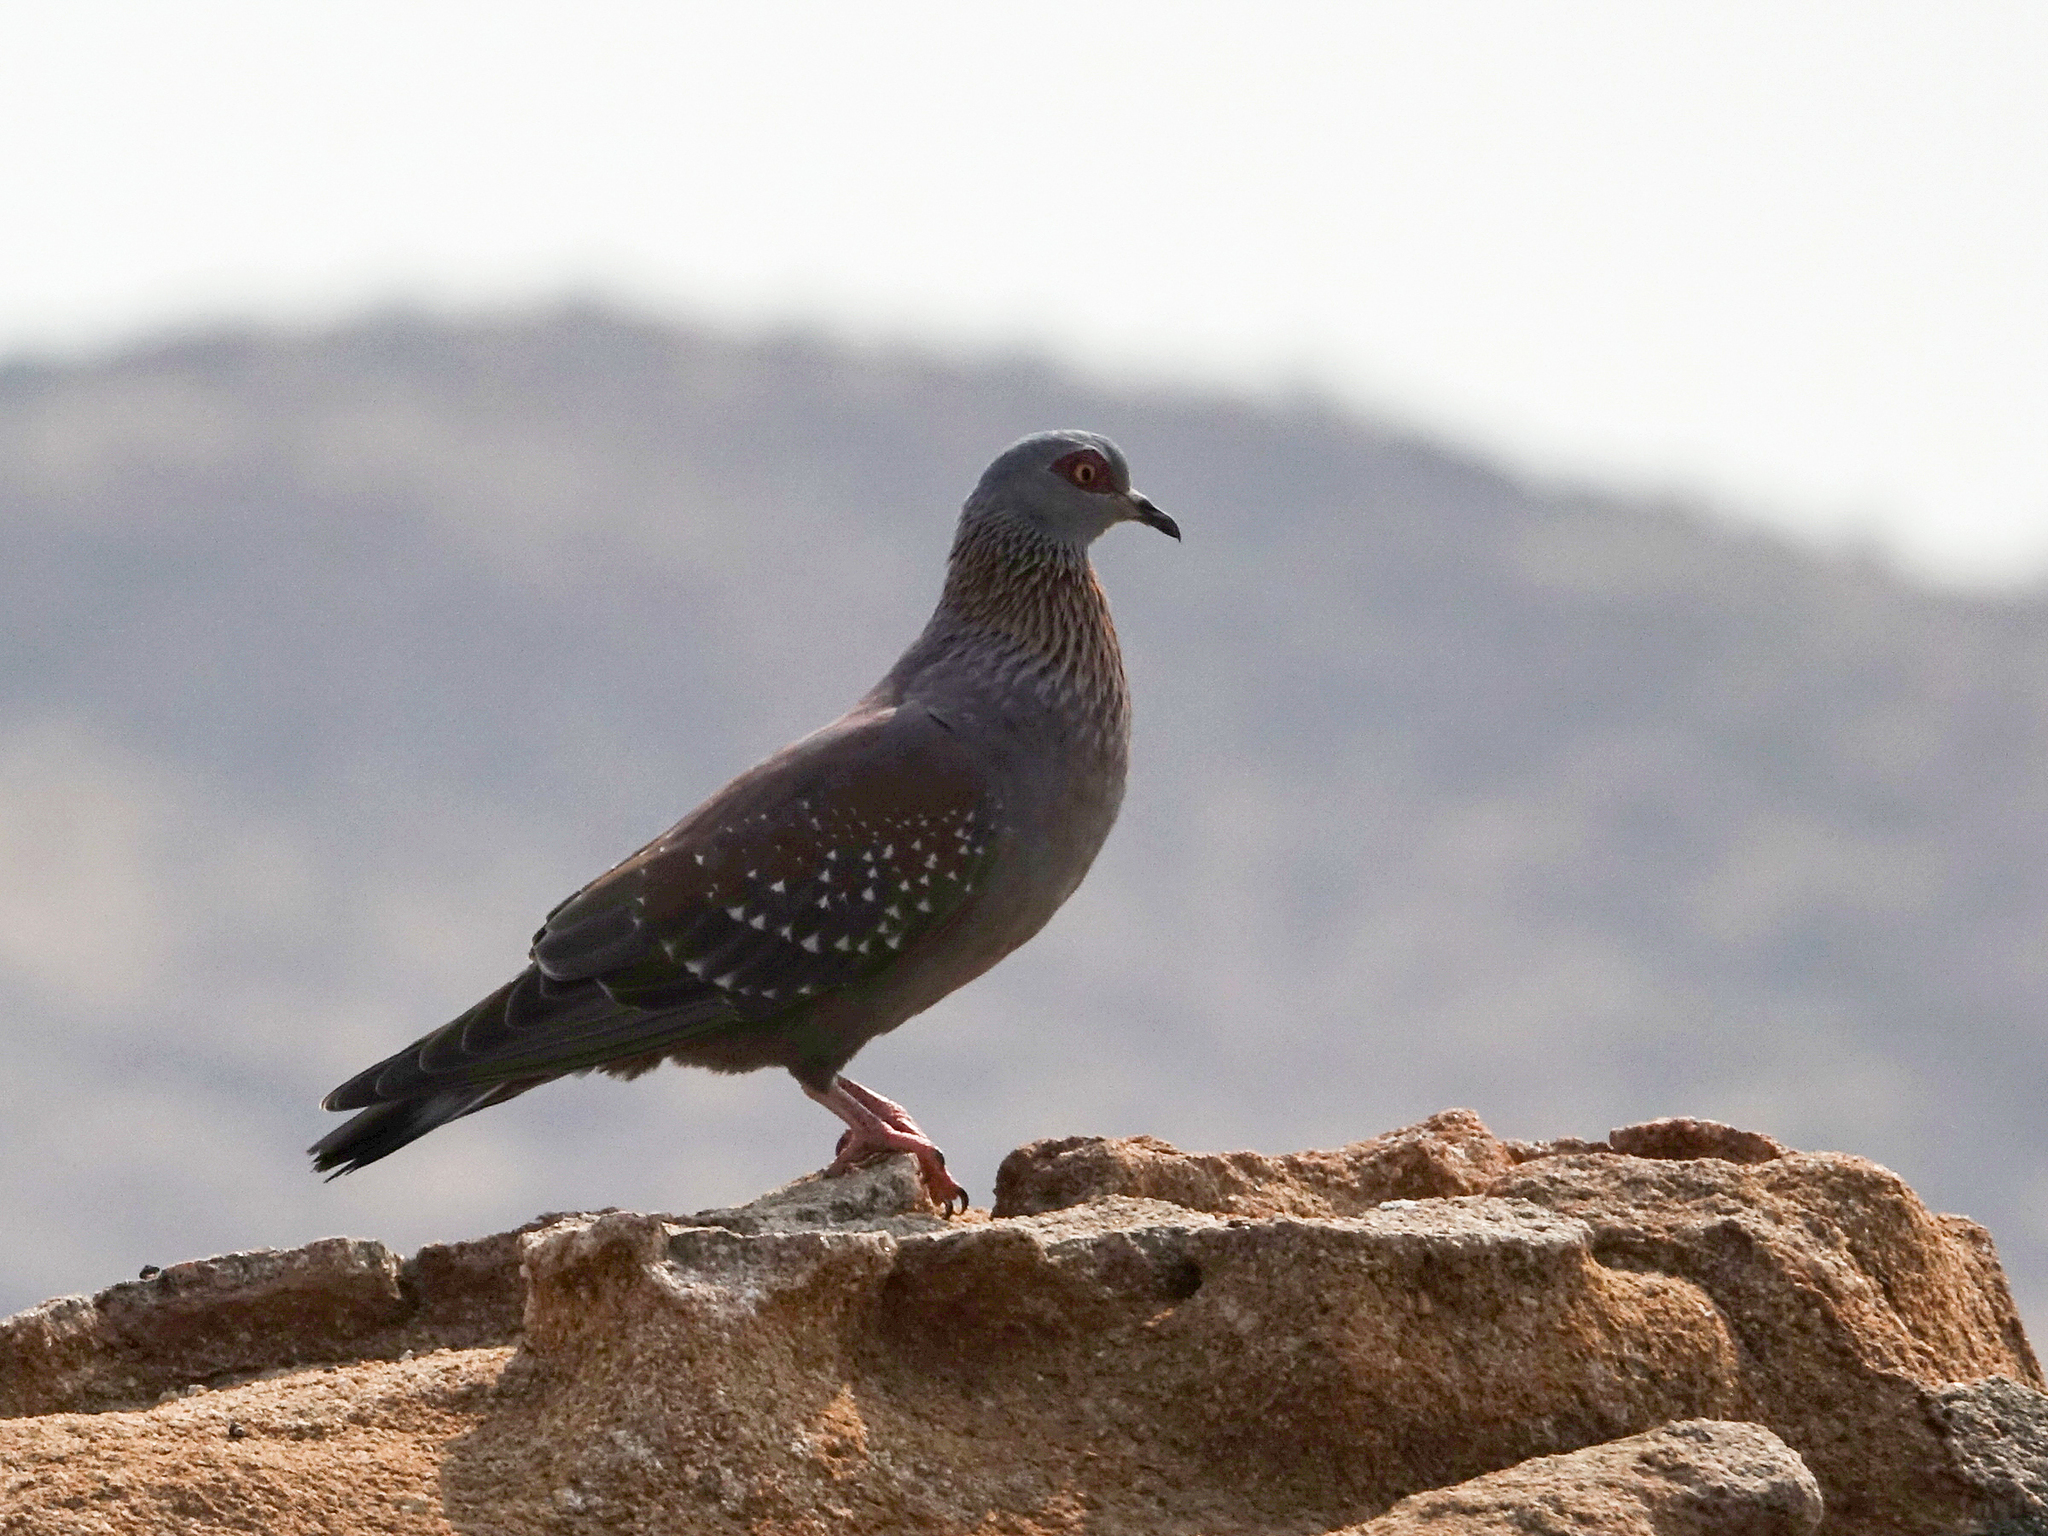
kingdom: Animalia
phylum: Chordata
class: Aves
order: Columbiformes
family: Columbidae
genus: Columba
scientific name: Columba guinea
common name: Speckled pigeon
